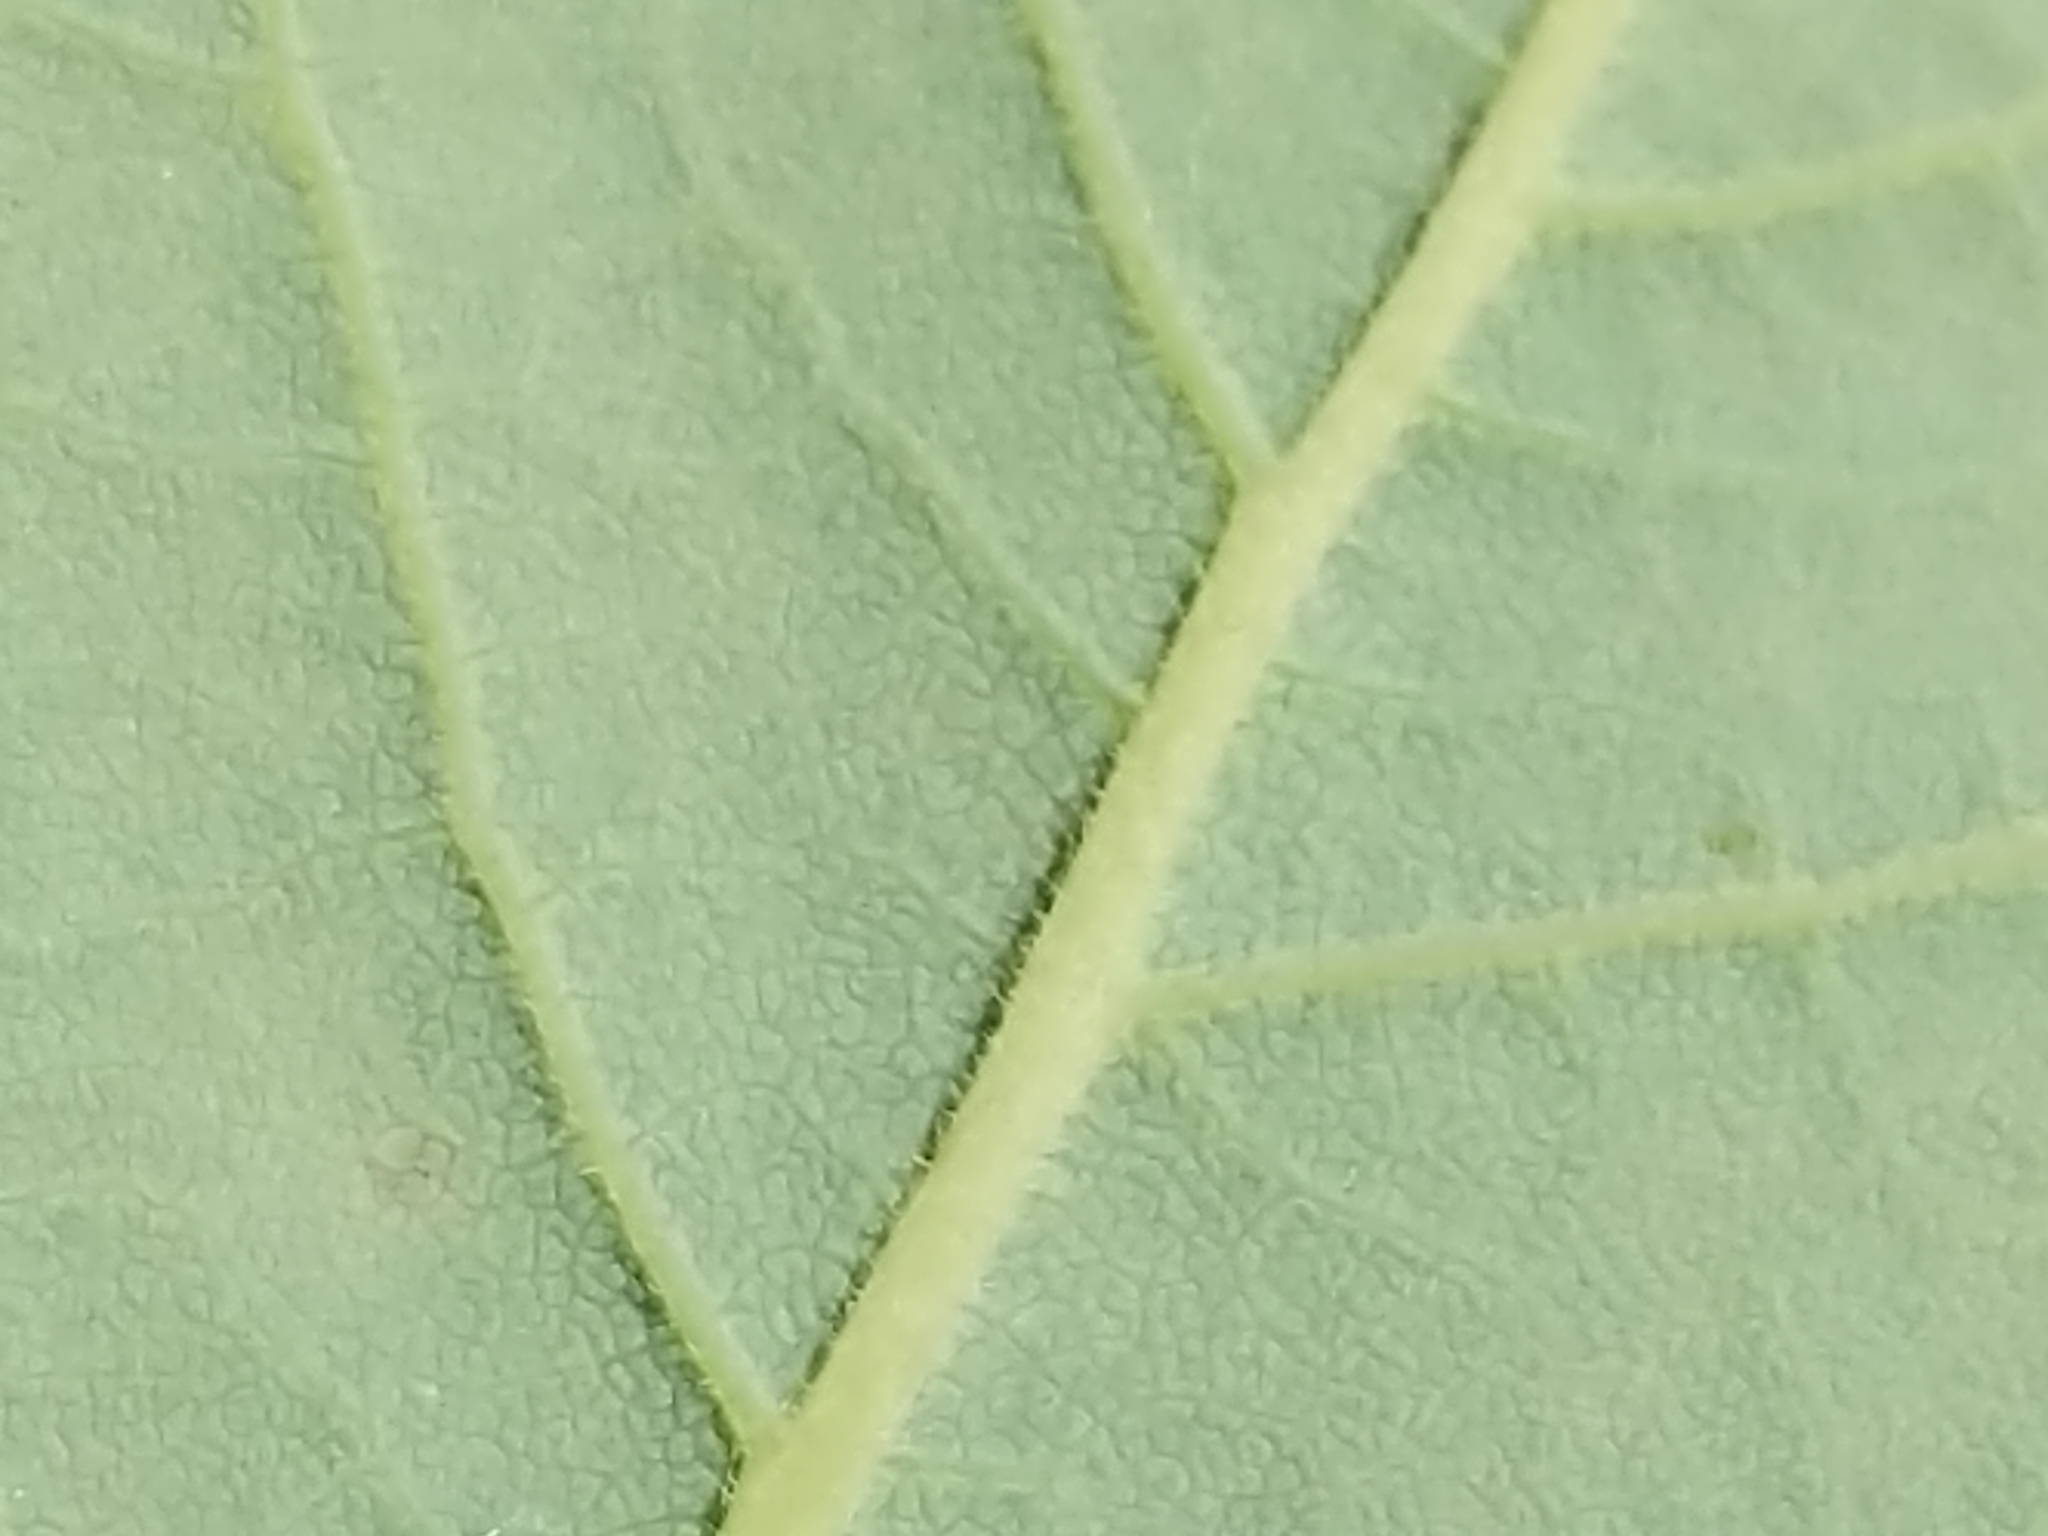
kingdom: Plantae
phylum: Tracheophyta
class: Magnoliopsida
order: Ericales
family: Ericaceae
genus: Vaccinium
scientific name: Vaccinium stamineum
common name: Deerberry
